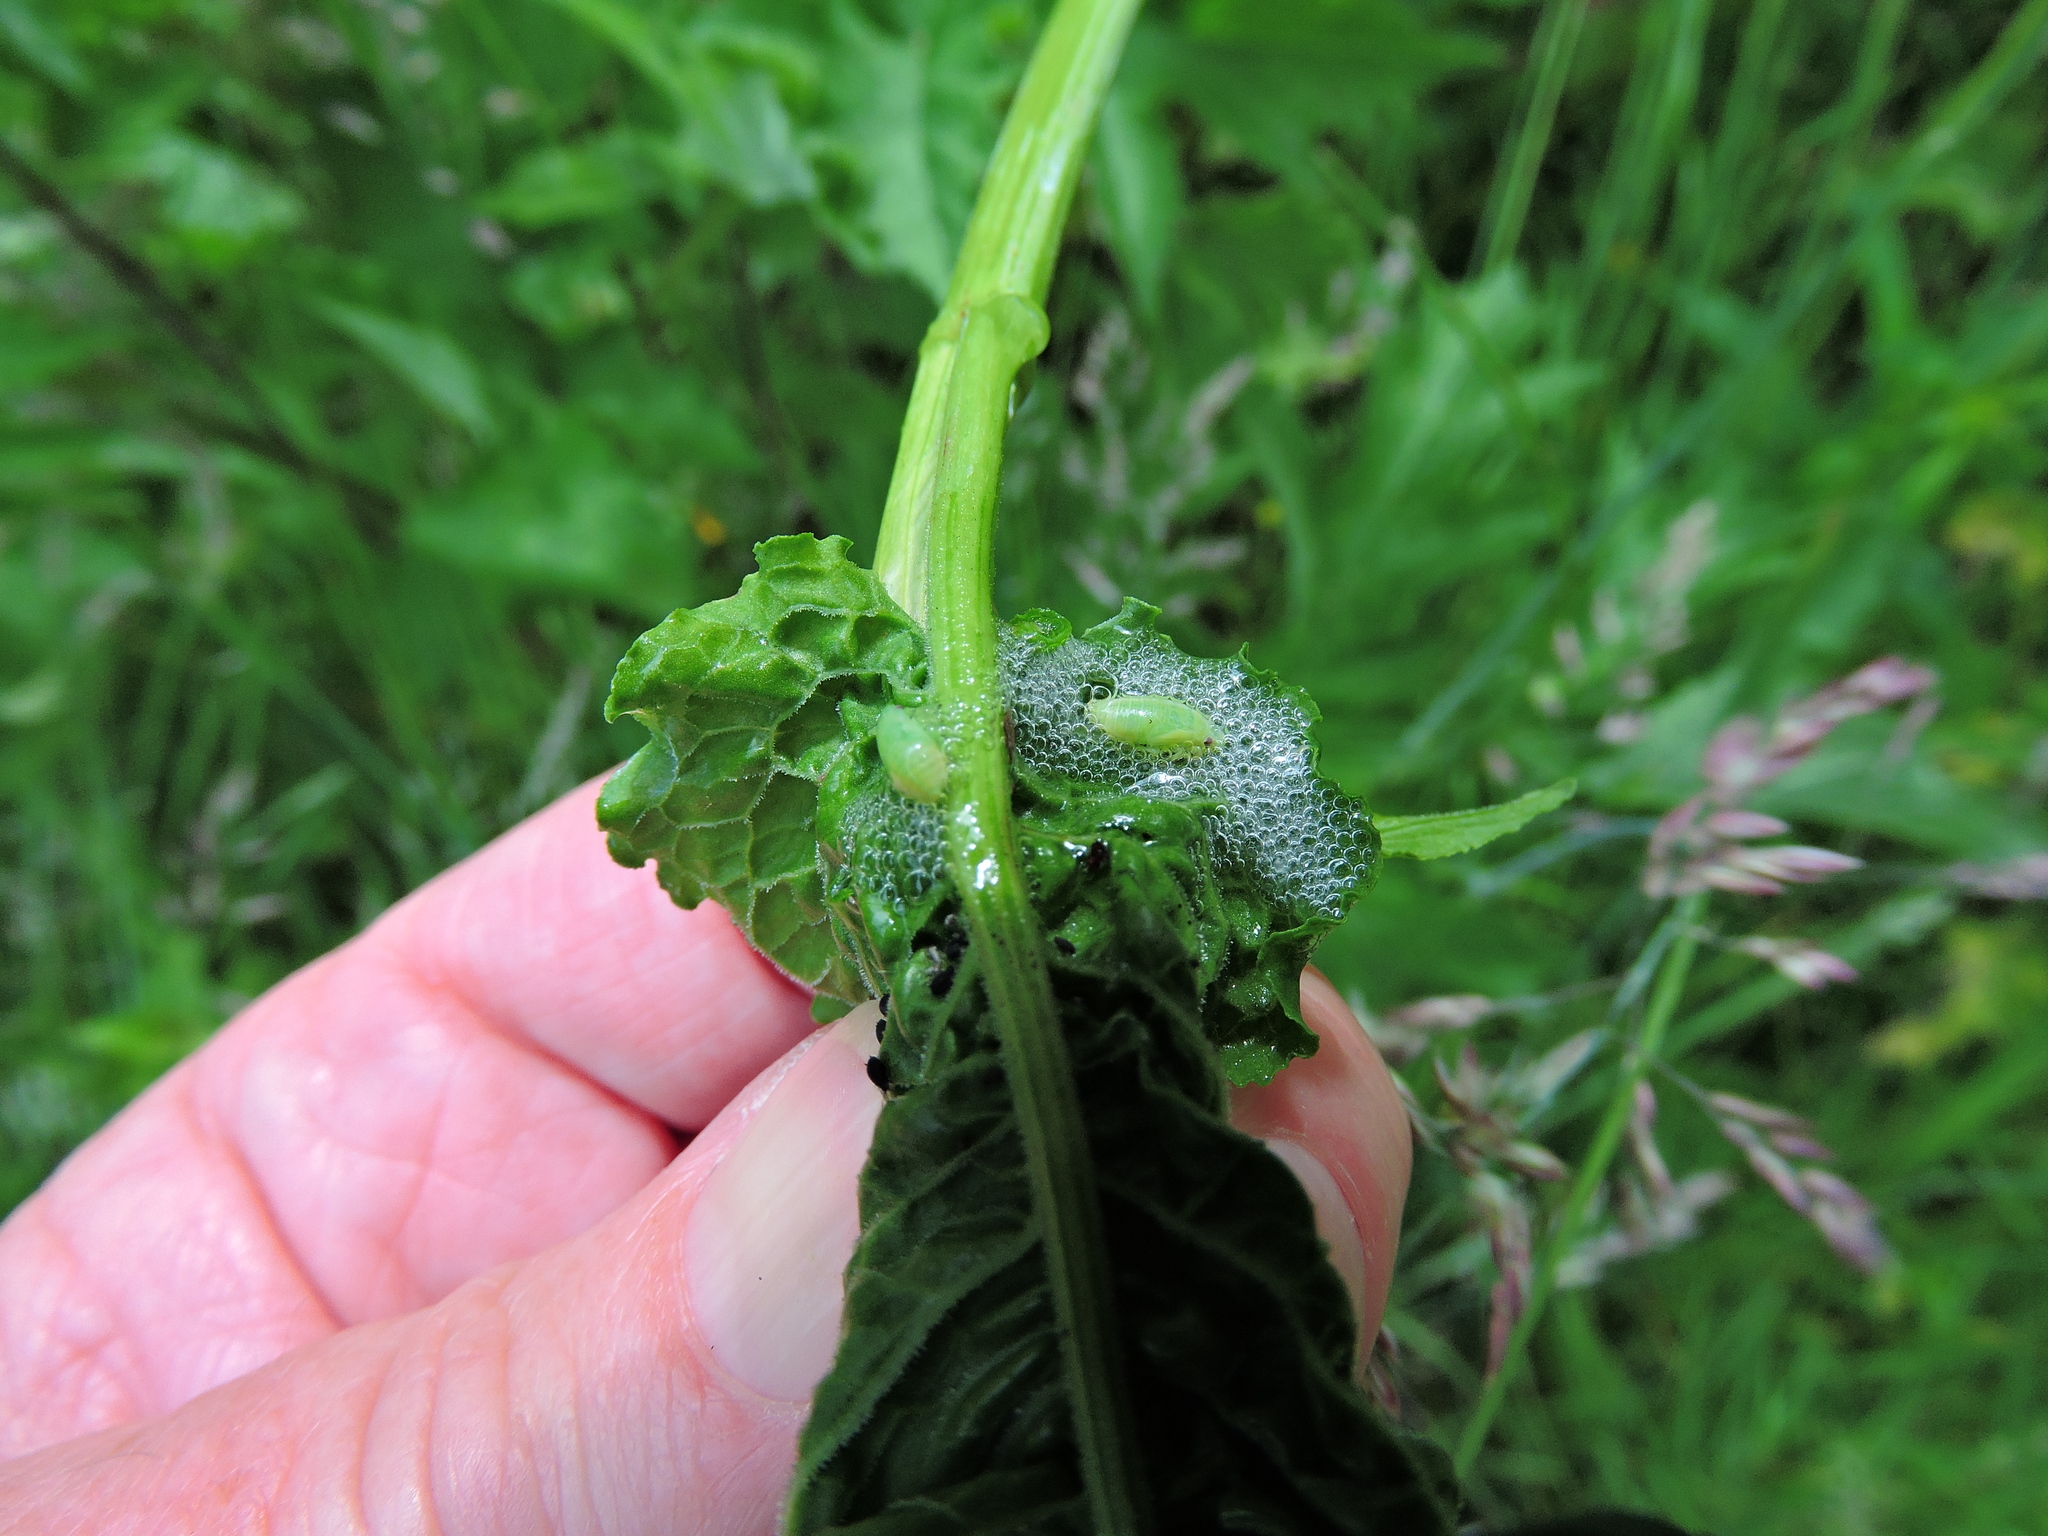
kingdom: Animalia
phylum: Arthropoda
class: Insecta
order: Hemiptera
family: Aphrophoridae
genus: Philaenus
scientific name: Philaenus spumarius
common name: Meadow spittlebug
